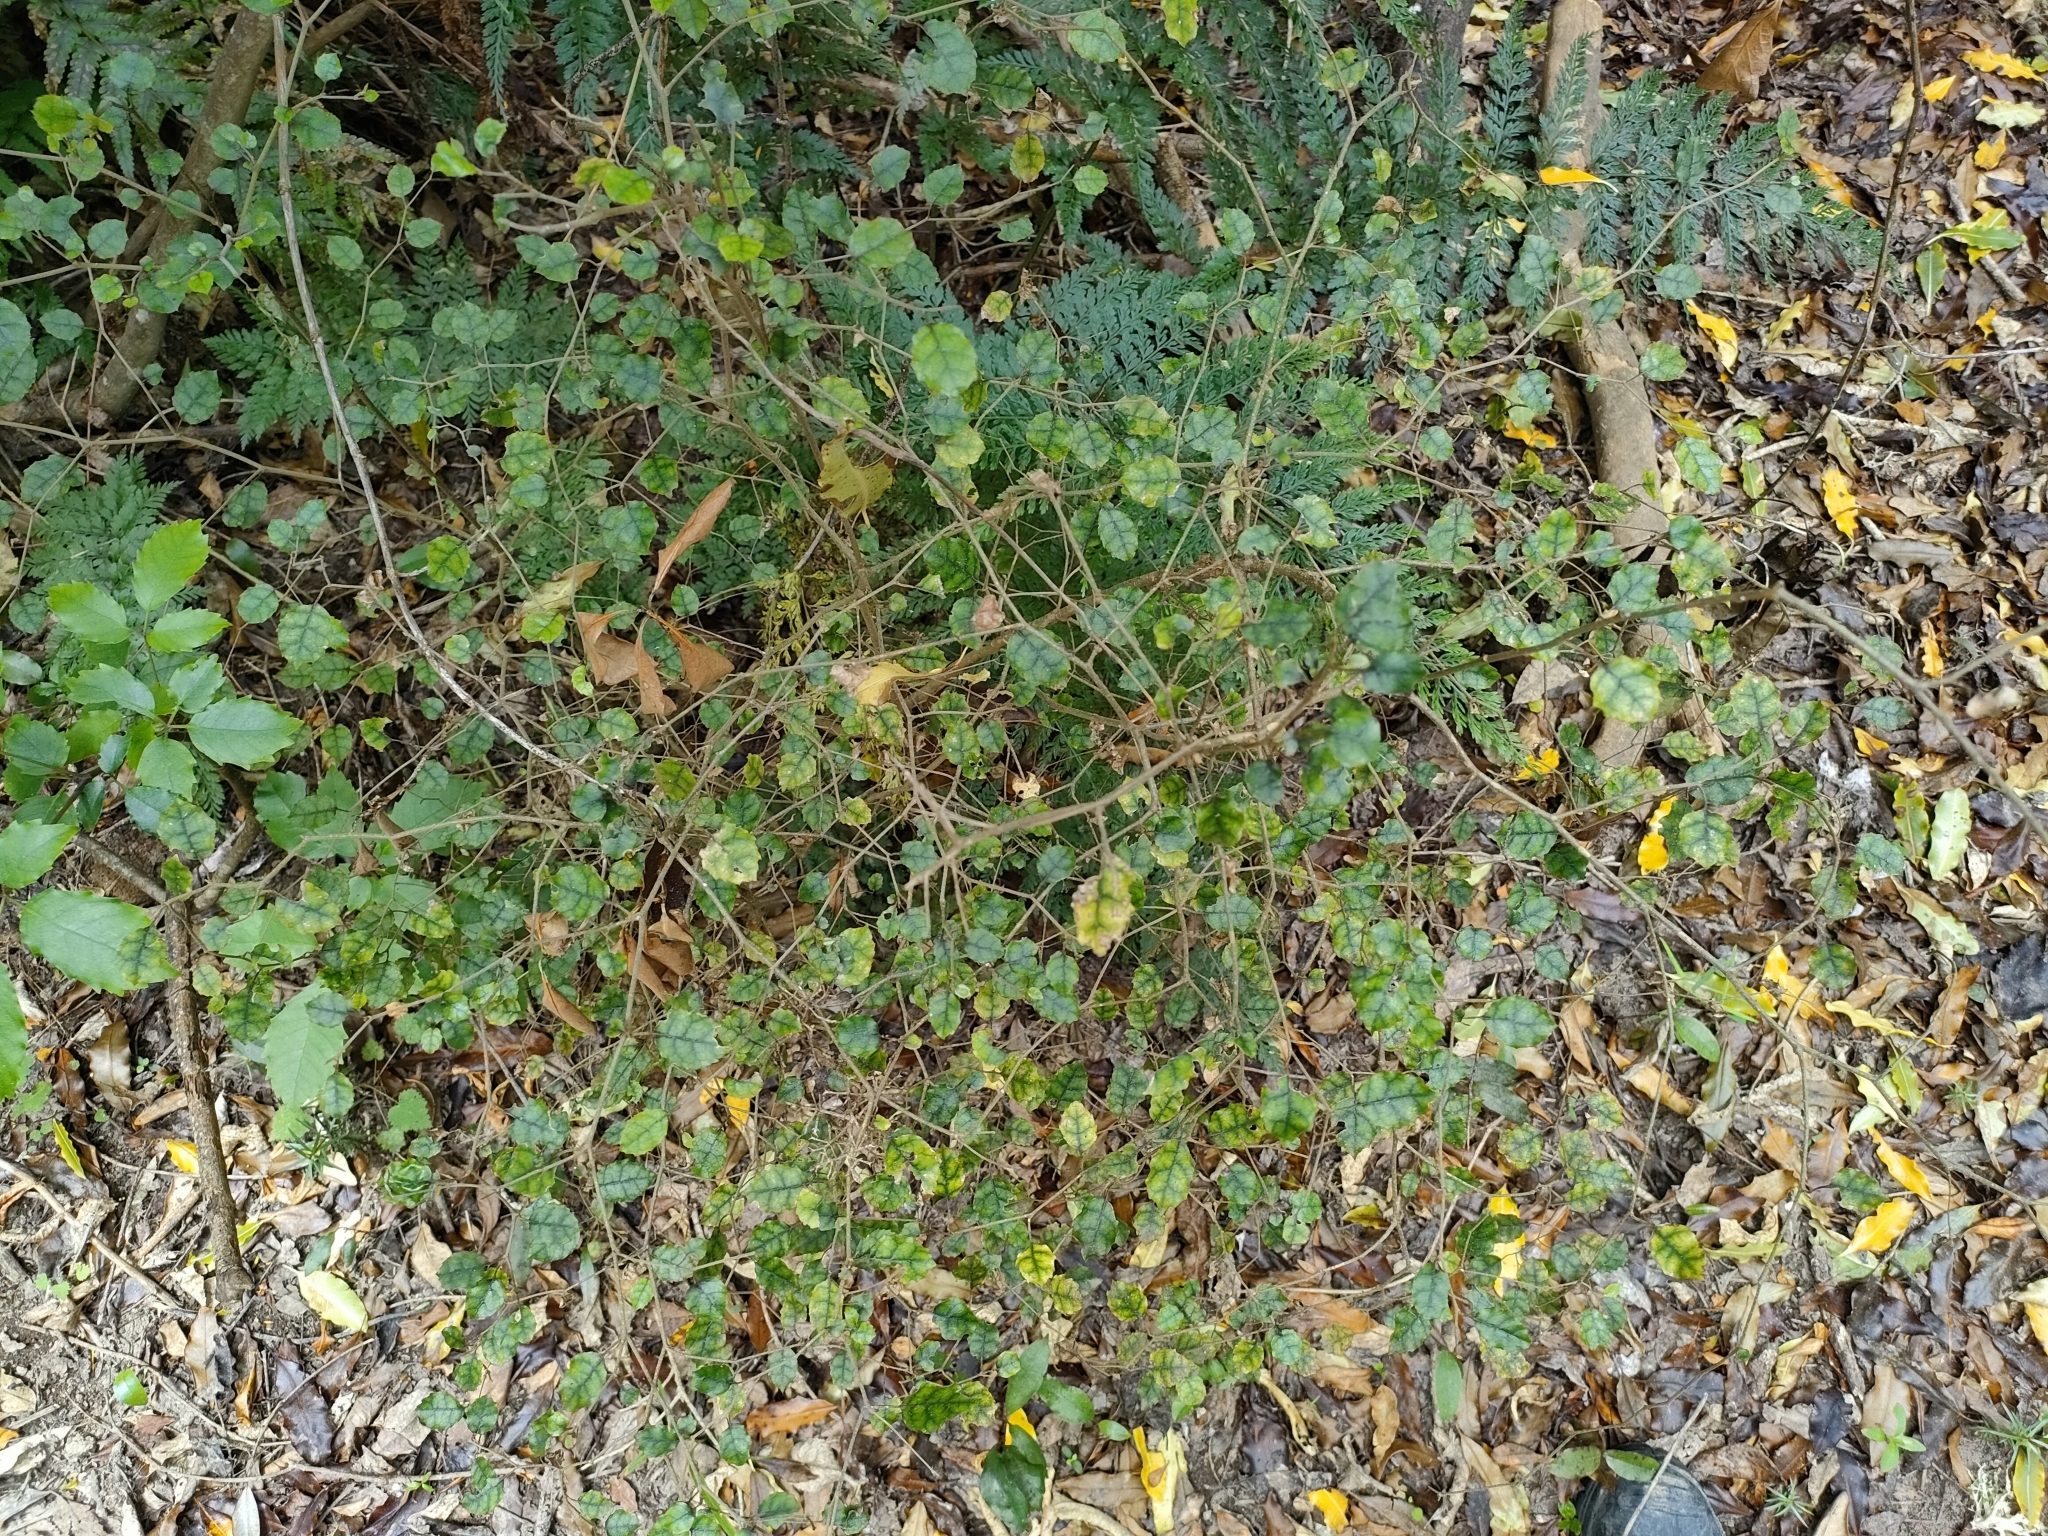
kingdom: Plantae
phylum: Tracheophyta
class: Magnoliopsida
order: Asterales
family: Rousseaceae
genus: Carpodetus
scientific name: Carpodetus serratus
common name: White mapau
